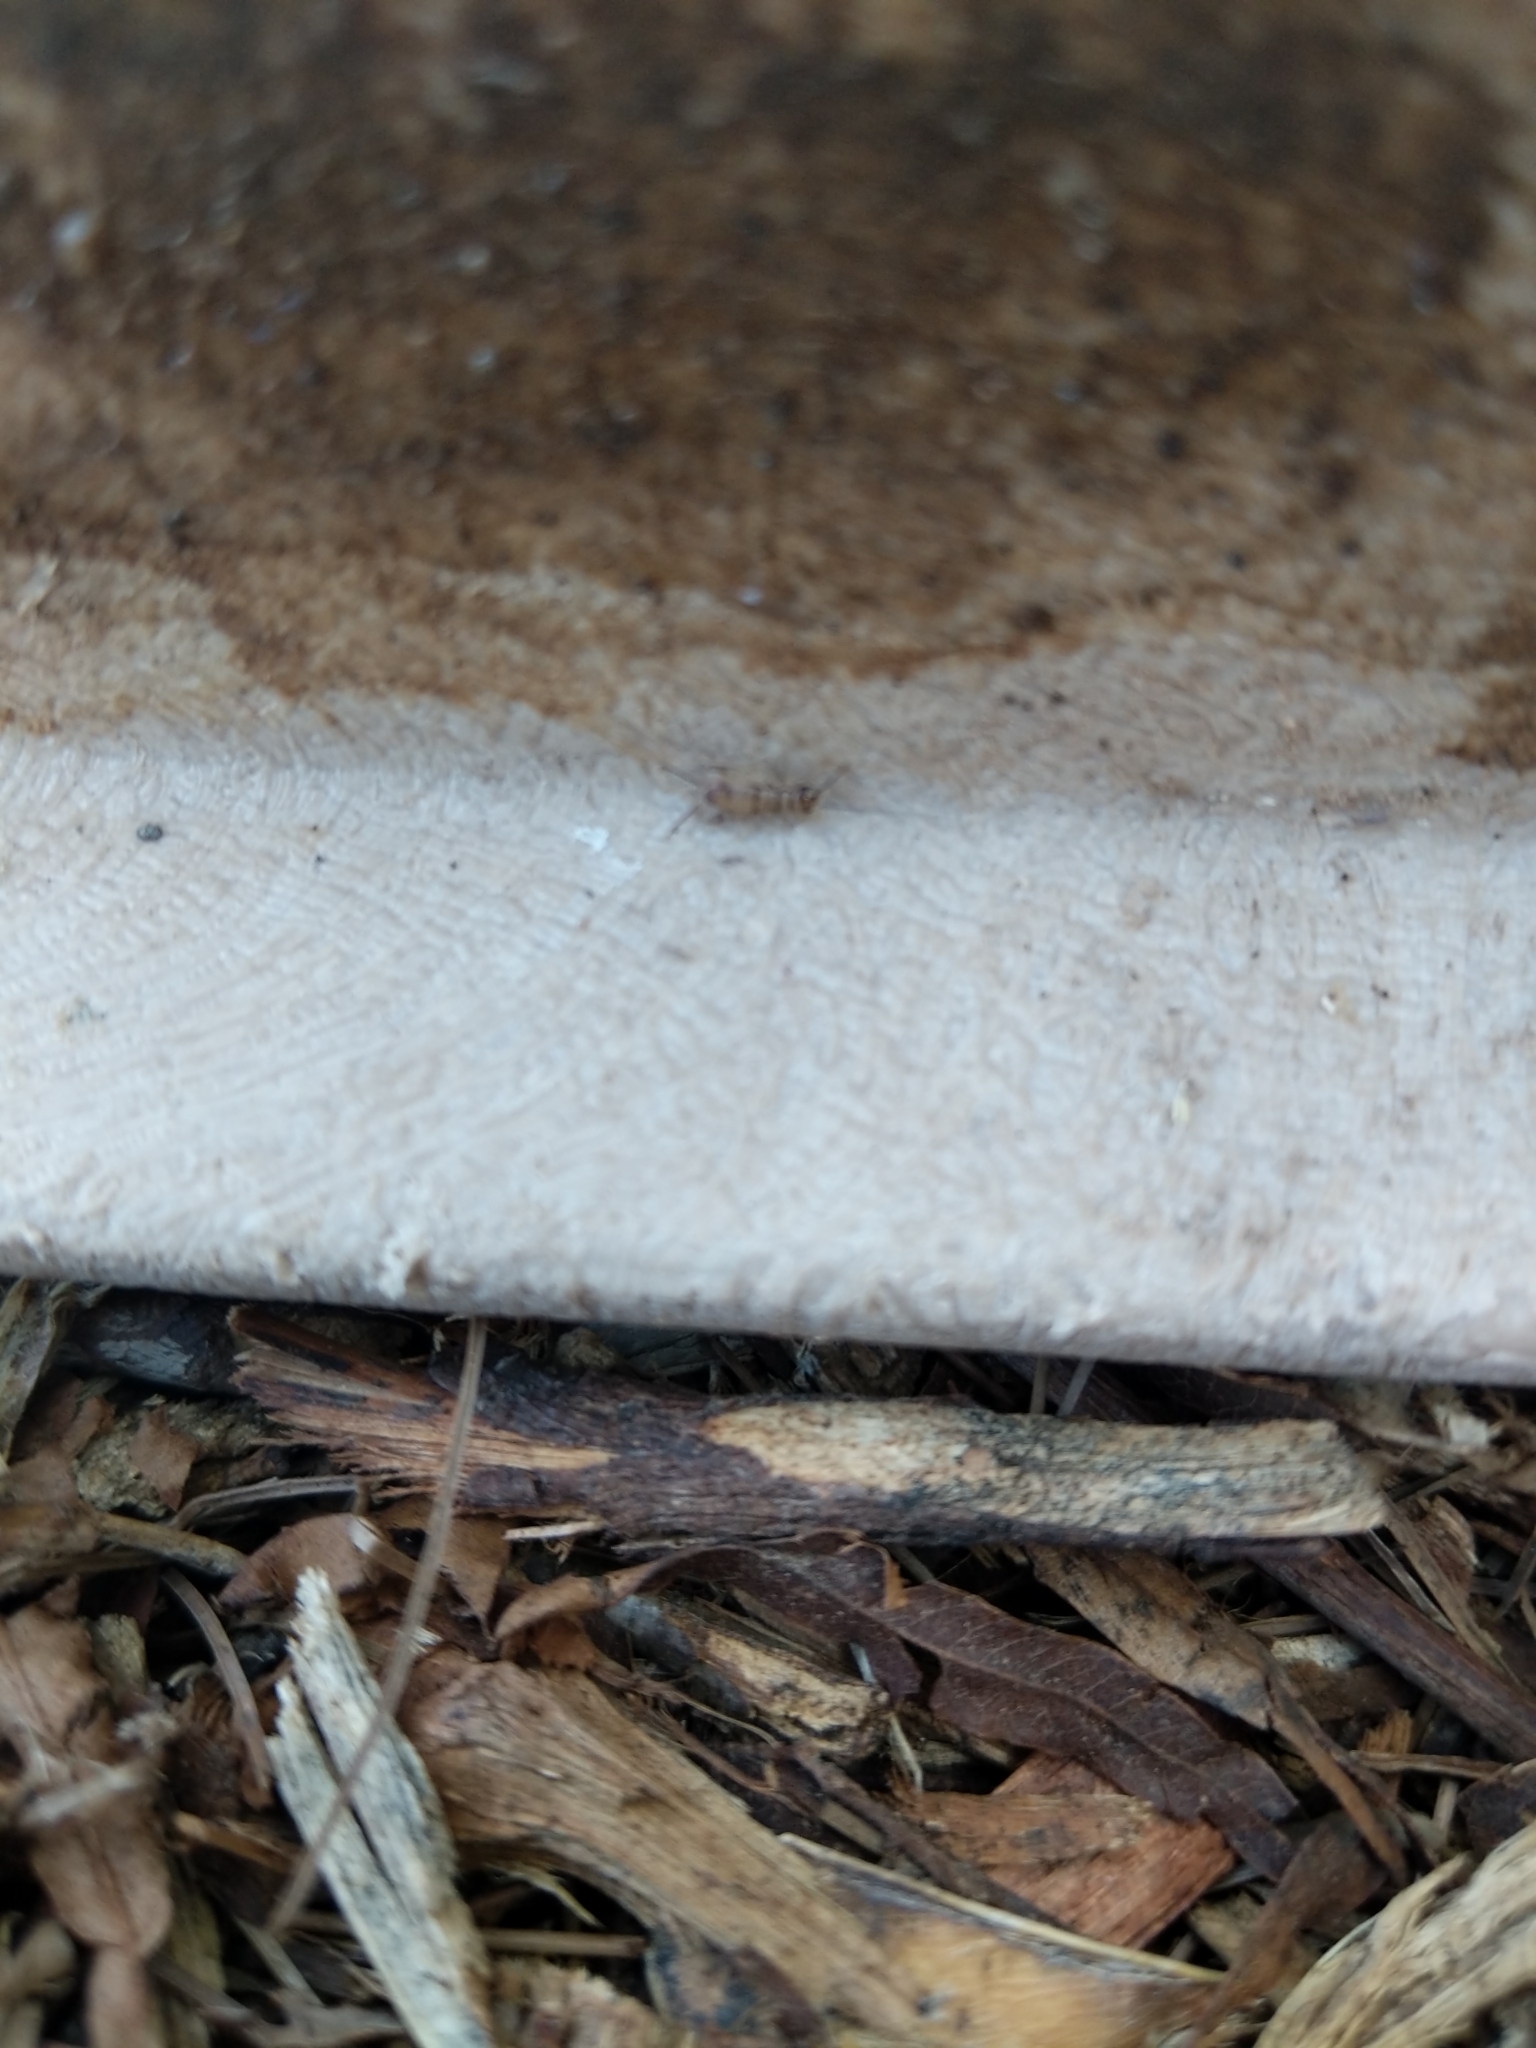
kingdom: Animalia
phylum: Arthropoda
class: Insecta
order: Orthoptera
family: Gryllidae
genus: Gryllodes
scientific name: Gryllodes sigillatus
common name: Tropical house cricket
